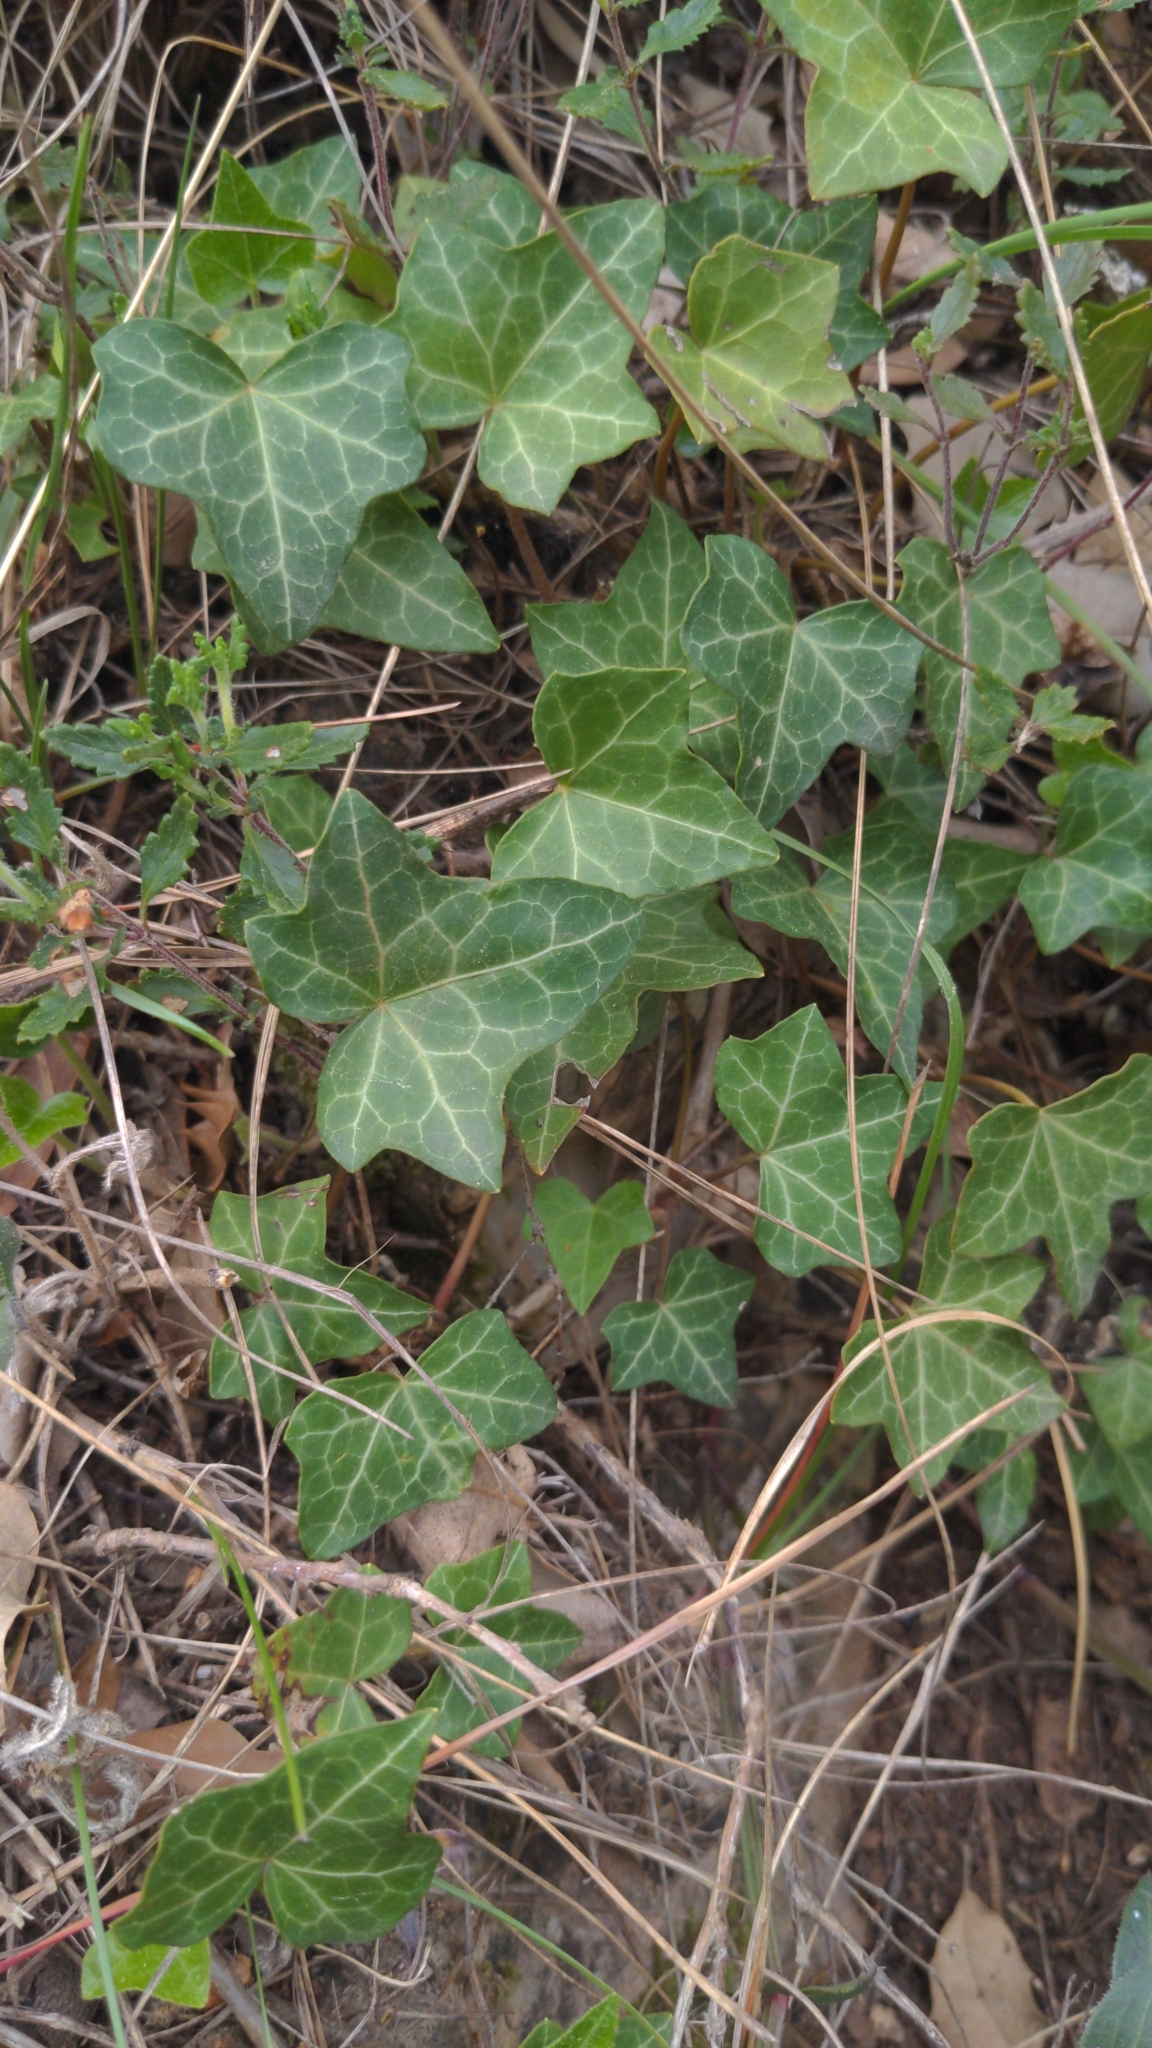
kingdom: Plantae
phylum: Tracheophyta
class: Magnoliopsida
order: Apiales
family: Araliaceae
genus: Hedera
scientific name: Hedera helix
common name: Ivy
